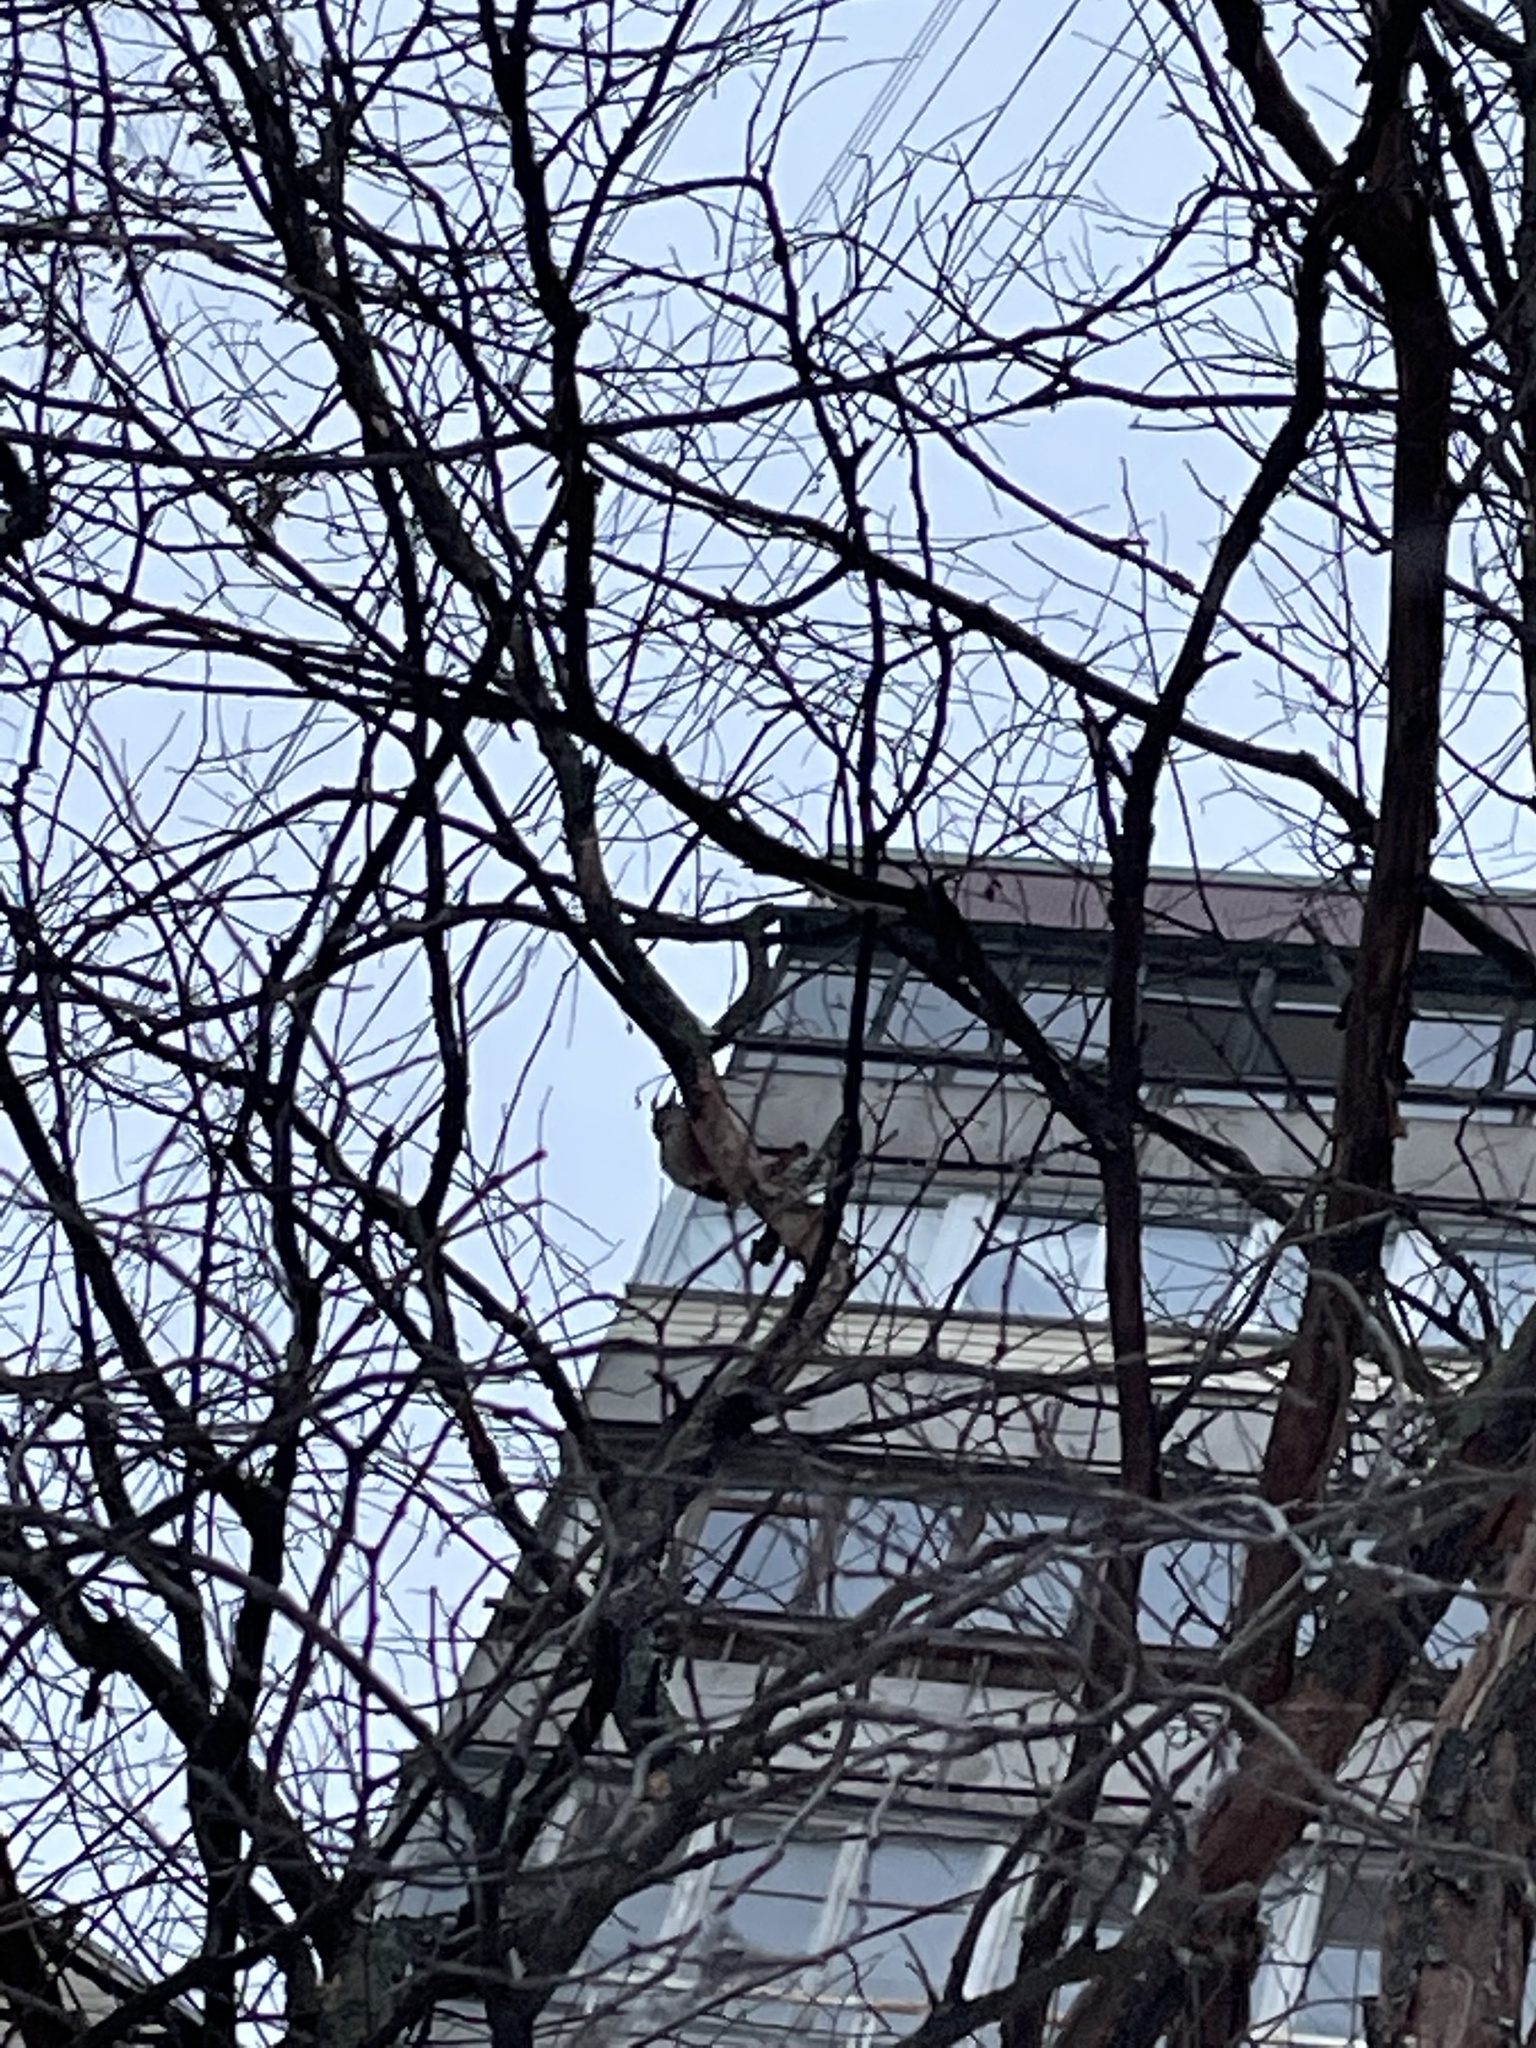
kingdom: Animalia
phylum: Chordata
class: Aves
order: Piciformes
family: Picidae
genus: Dendrocopos
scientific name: Dendrocopos leucotos
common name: White-backed woodpecker
